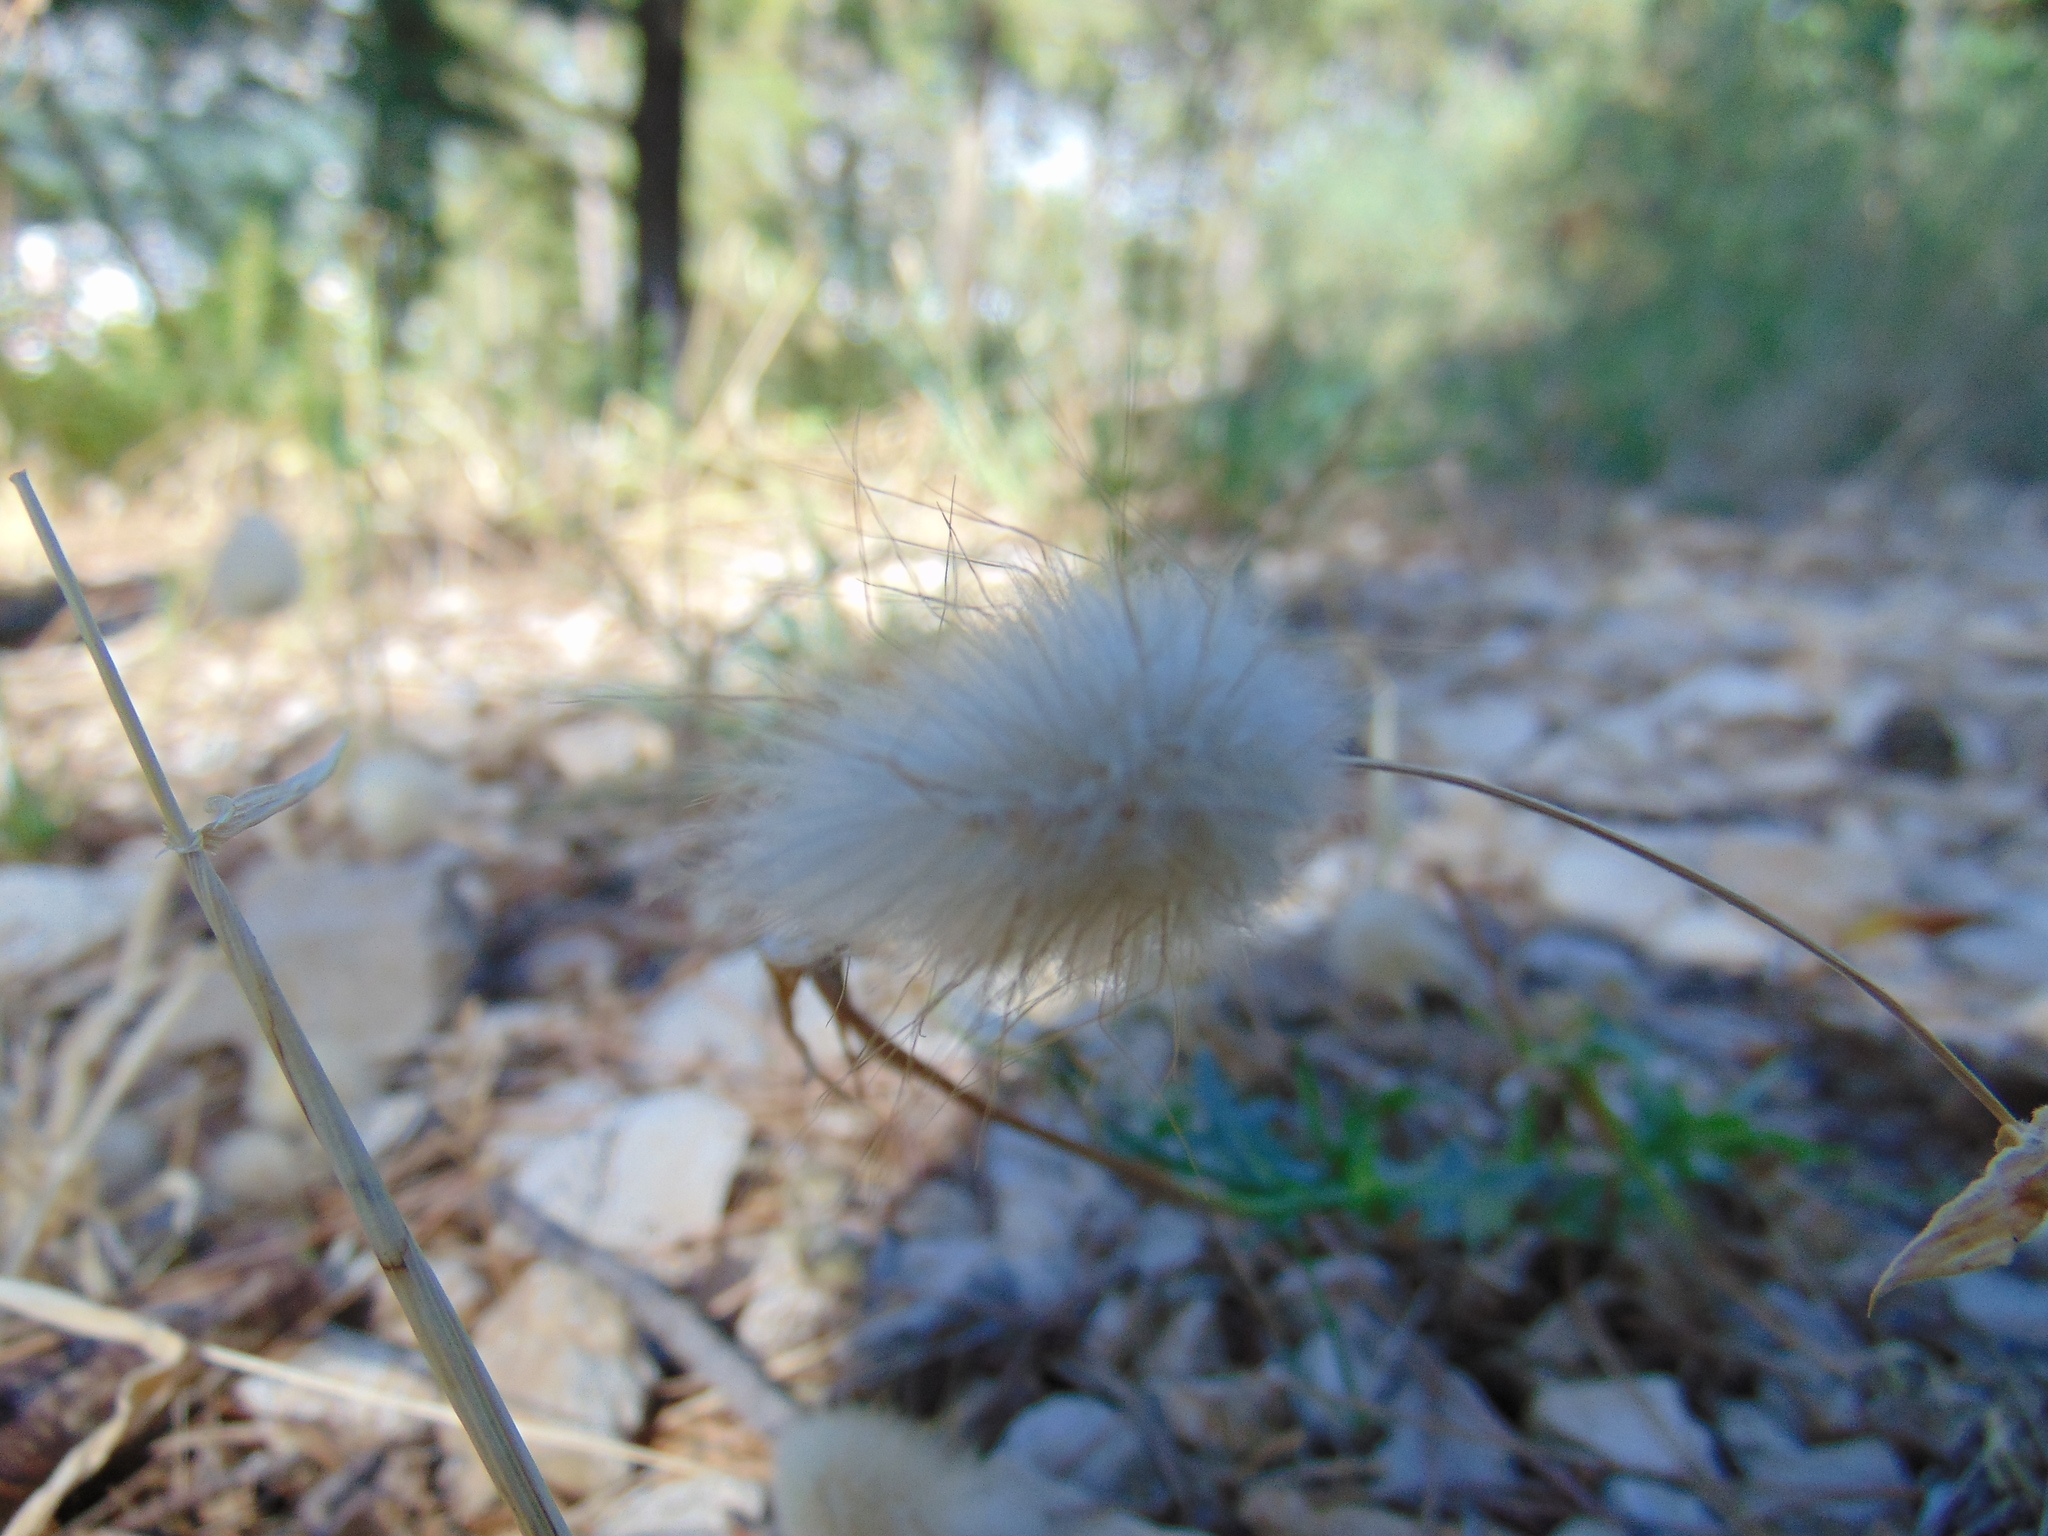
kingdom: Plantae
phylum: Tracheophyta
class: Liliopsida
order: Poales
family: Poaceae
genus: Lagurus
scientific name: Lagurus ovatus
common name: Hare's-tail
